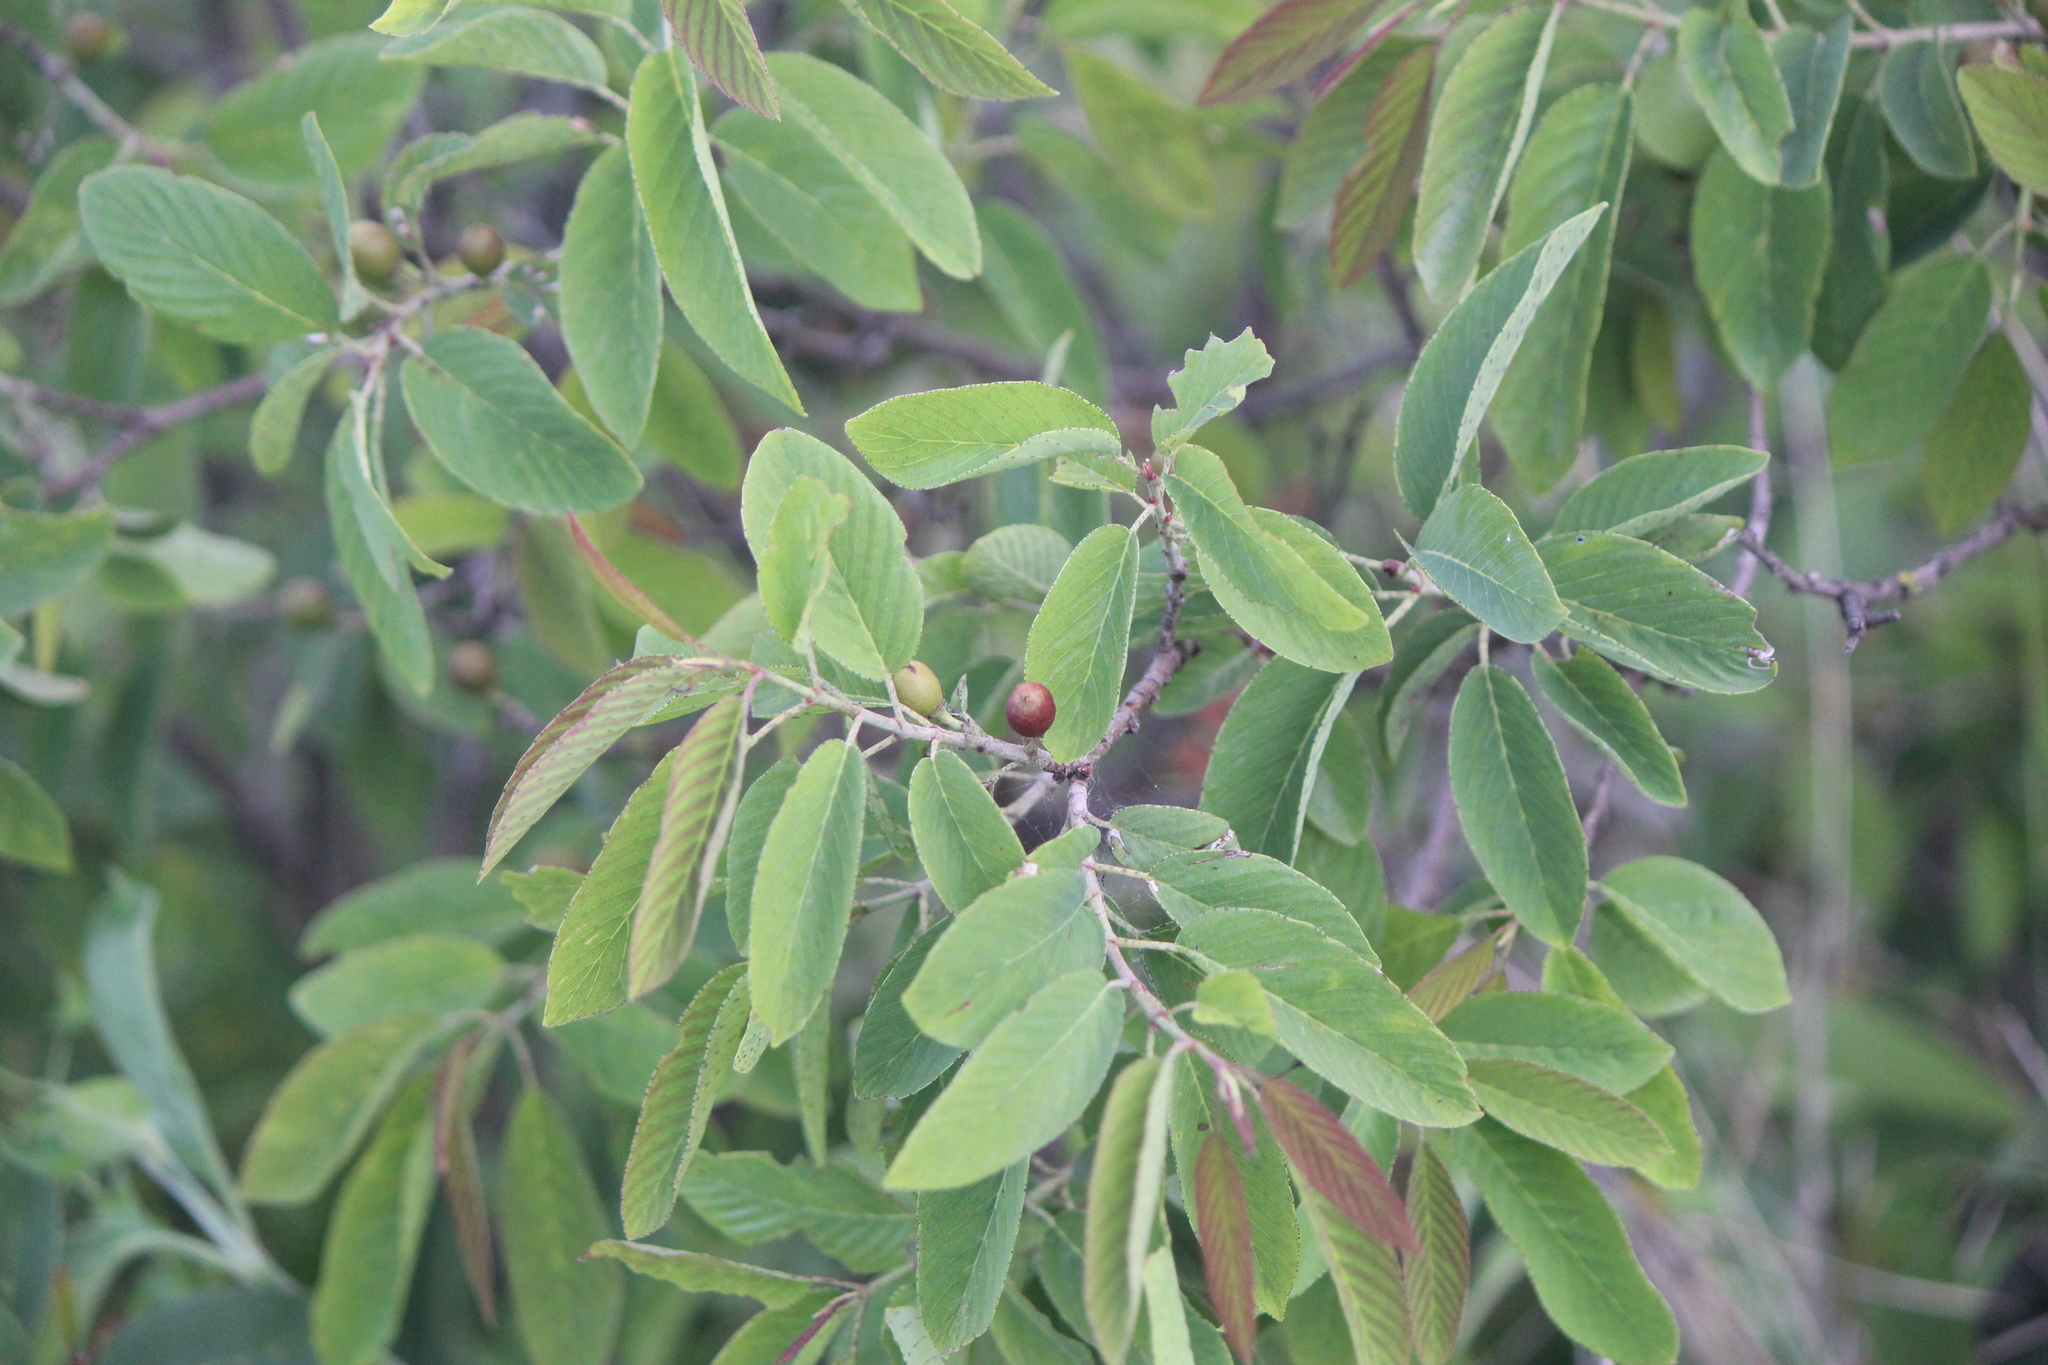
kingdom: Plantae
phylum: Tracheophyta
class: Magnoliopsida
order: Rosales
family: Rhamnaceae
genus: Karwinskia
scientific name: Karwinskia humboldtiana
